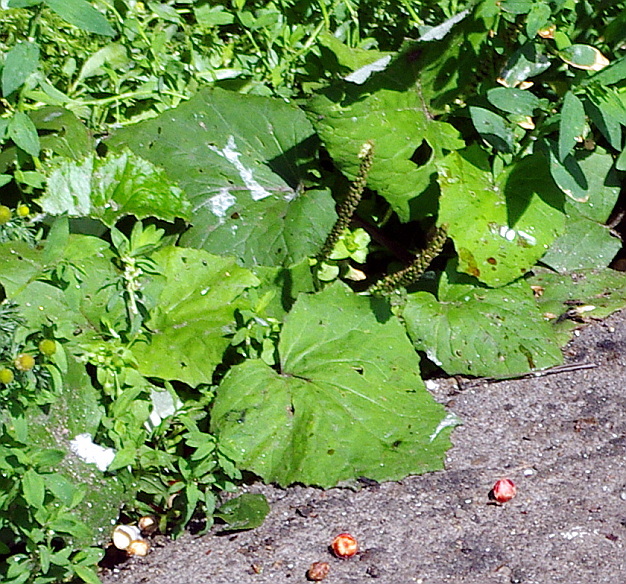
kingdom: Plantae
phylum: Tracheophyta
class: Magnoliopsida
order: Asterales
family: Asteraceae
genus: Tussilago
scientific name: Tussilago farfara
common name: Coltsfoot
